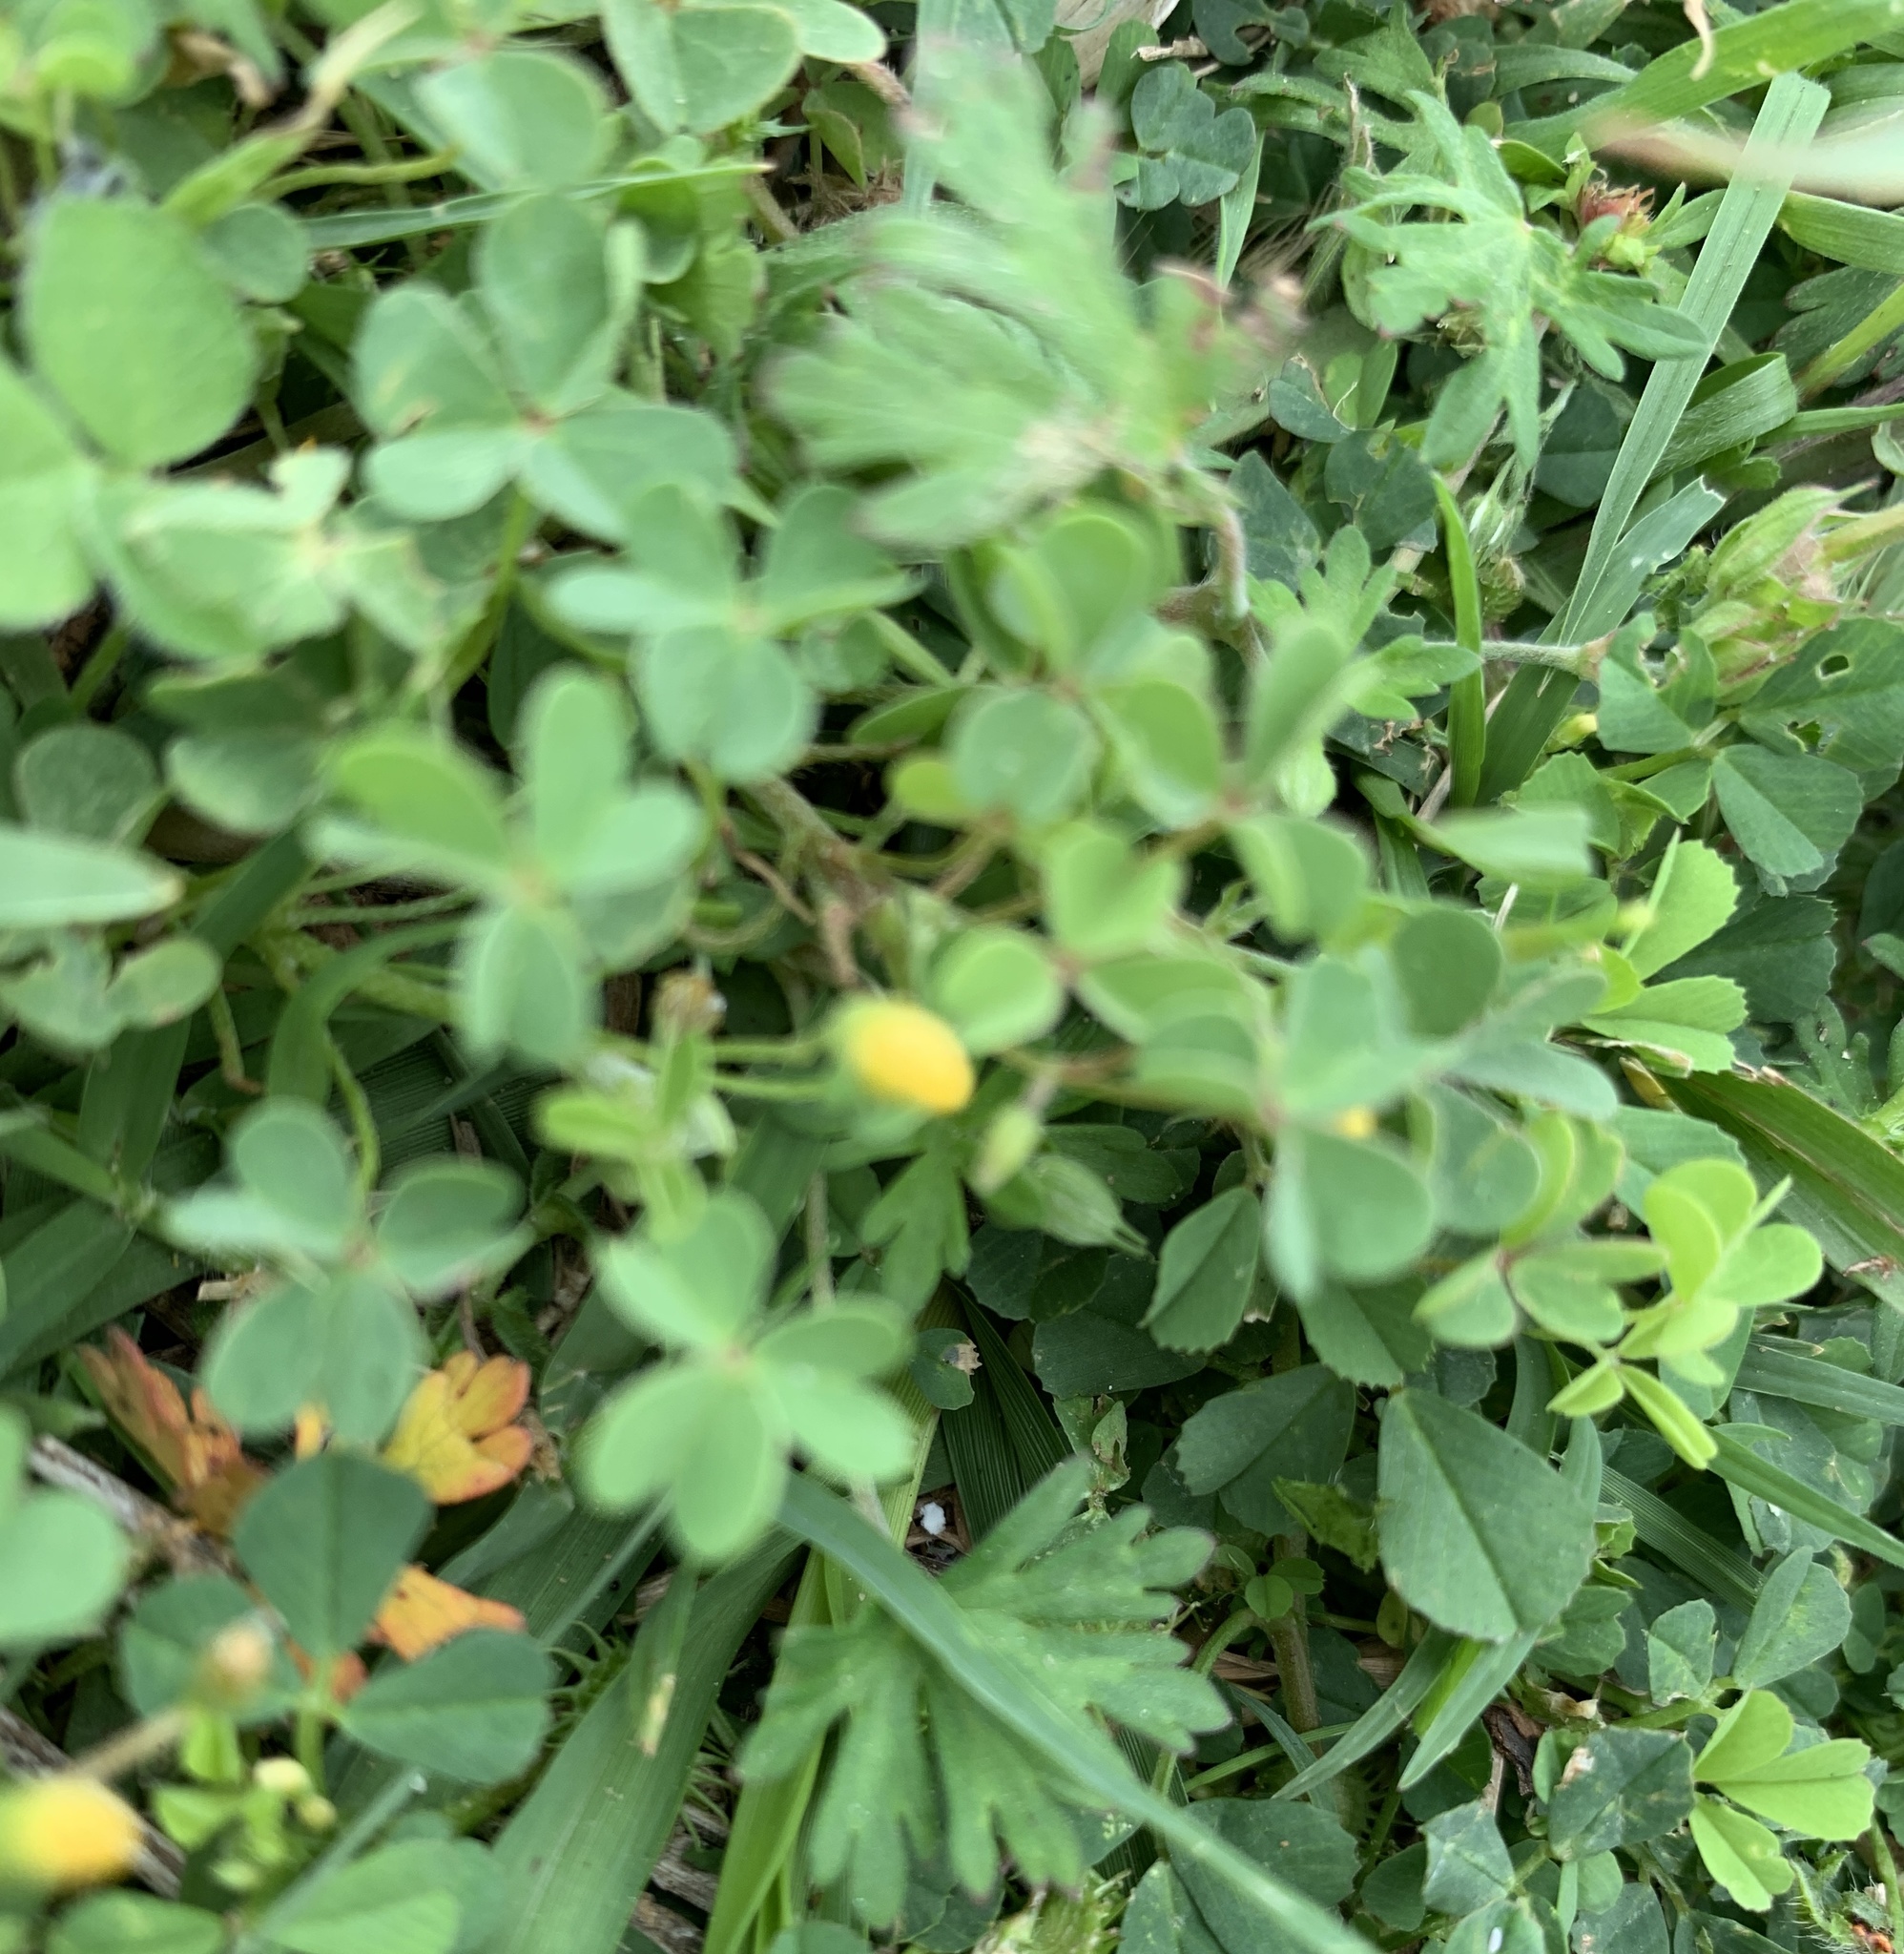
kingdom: Plantae
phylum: Tracheophyta
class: Magnoliopsida
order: Oxalidales
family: Oxalidaceae
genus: Oxalis
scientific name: Oxalis dillenii
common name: Sussex yellow-sorrel
